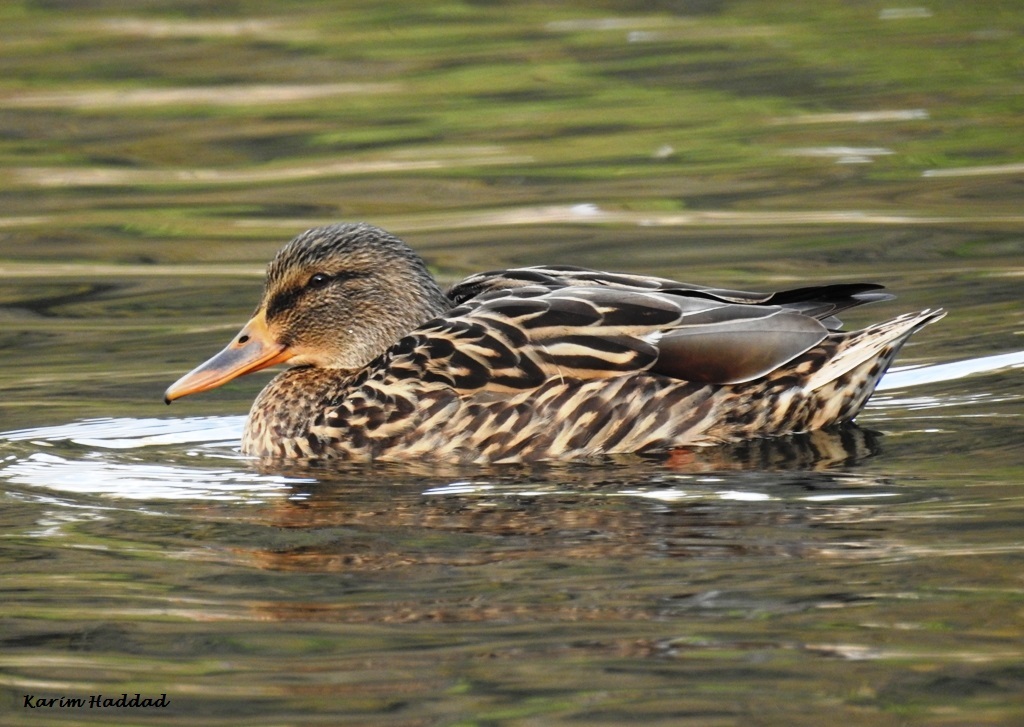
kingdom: Animalia
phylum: Chordata
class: Aves
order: Anseriformes
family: Anatidae
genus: Anas
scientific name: Anas platyrhynchos
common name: Mallard
